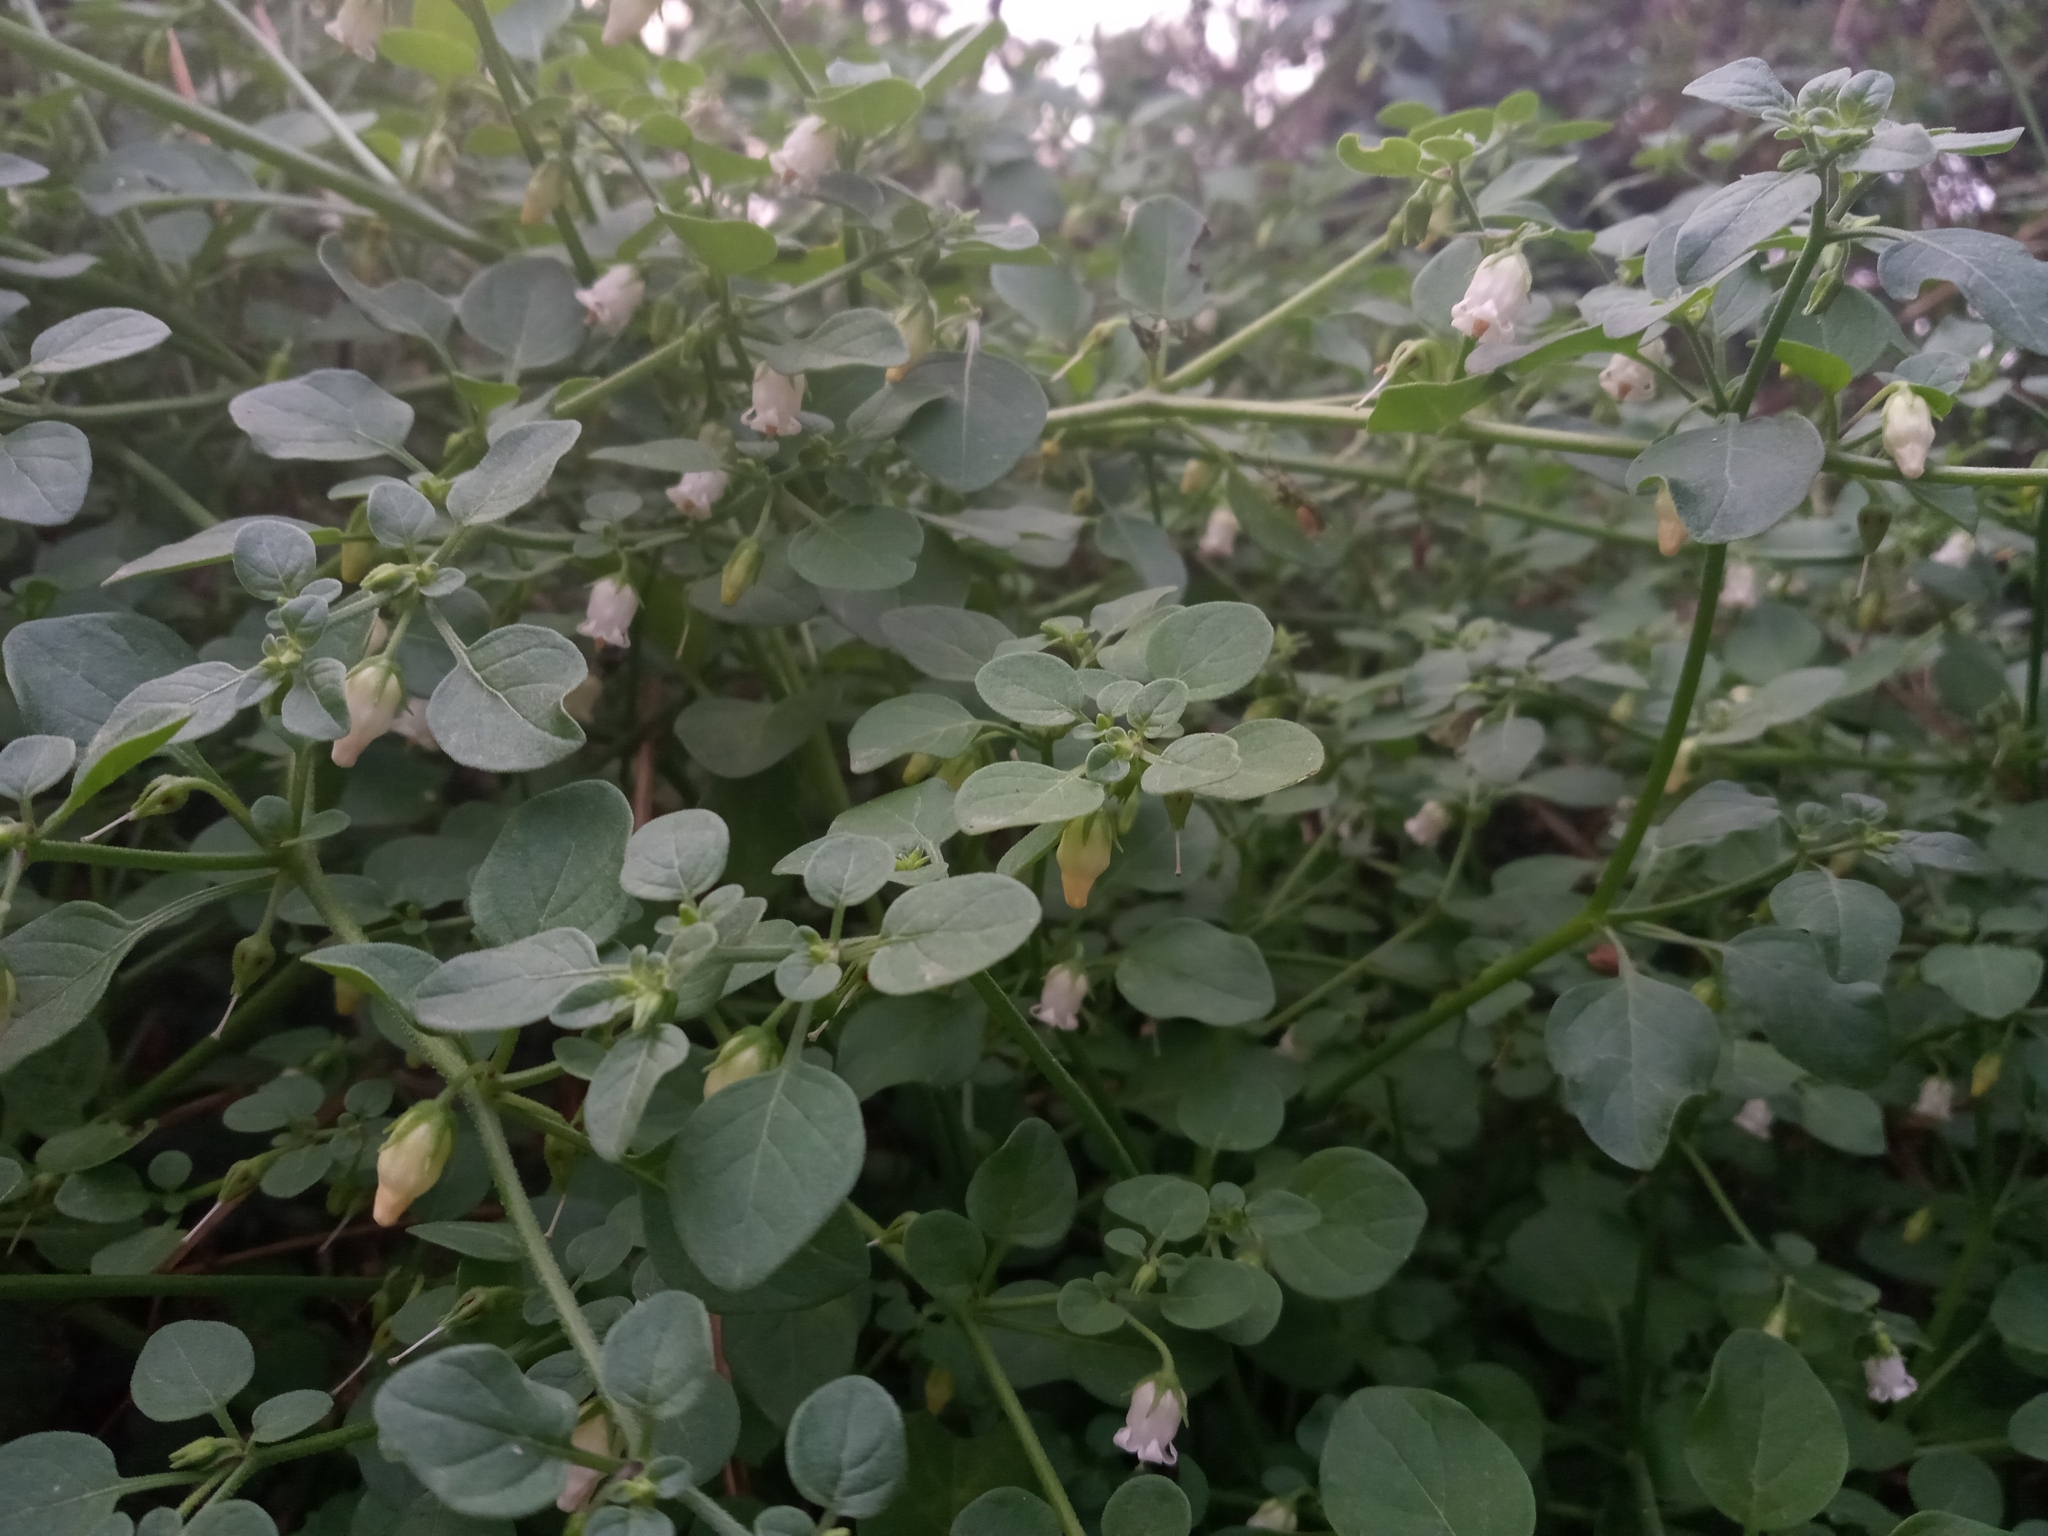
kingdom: Plantae
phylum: Tracheophyta
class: Magnoliopsida
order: Solanales
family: Solanaceae
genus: Salpichroa
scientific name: Salpichroa origanifolia
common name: Lily-of-the-valley-vine
